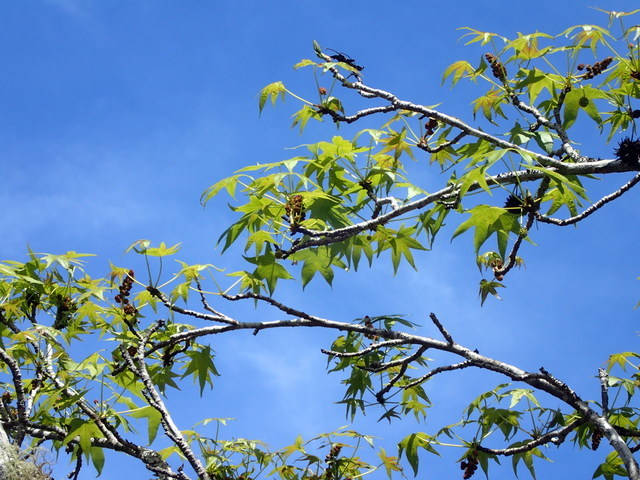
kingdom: Plantae
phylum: Tracheophyta
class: Magnoliopsida
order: Saxifragales
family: Altingiaceae
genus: Liquidambar
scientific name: Liquidambar styraciflua
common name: Sweet gum
